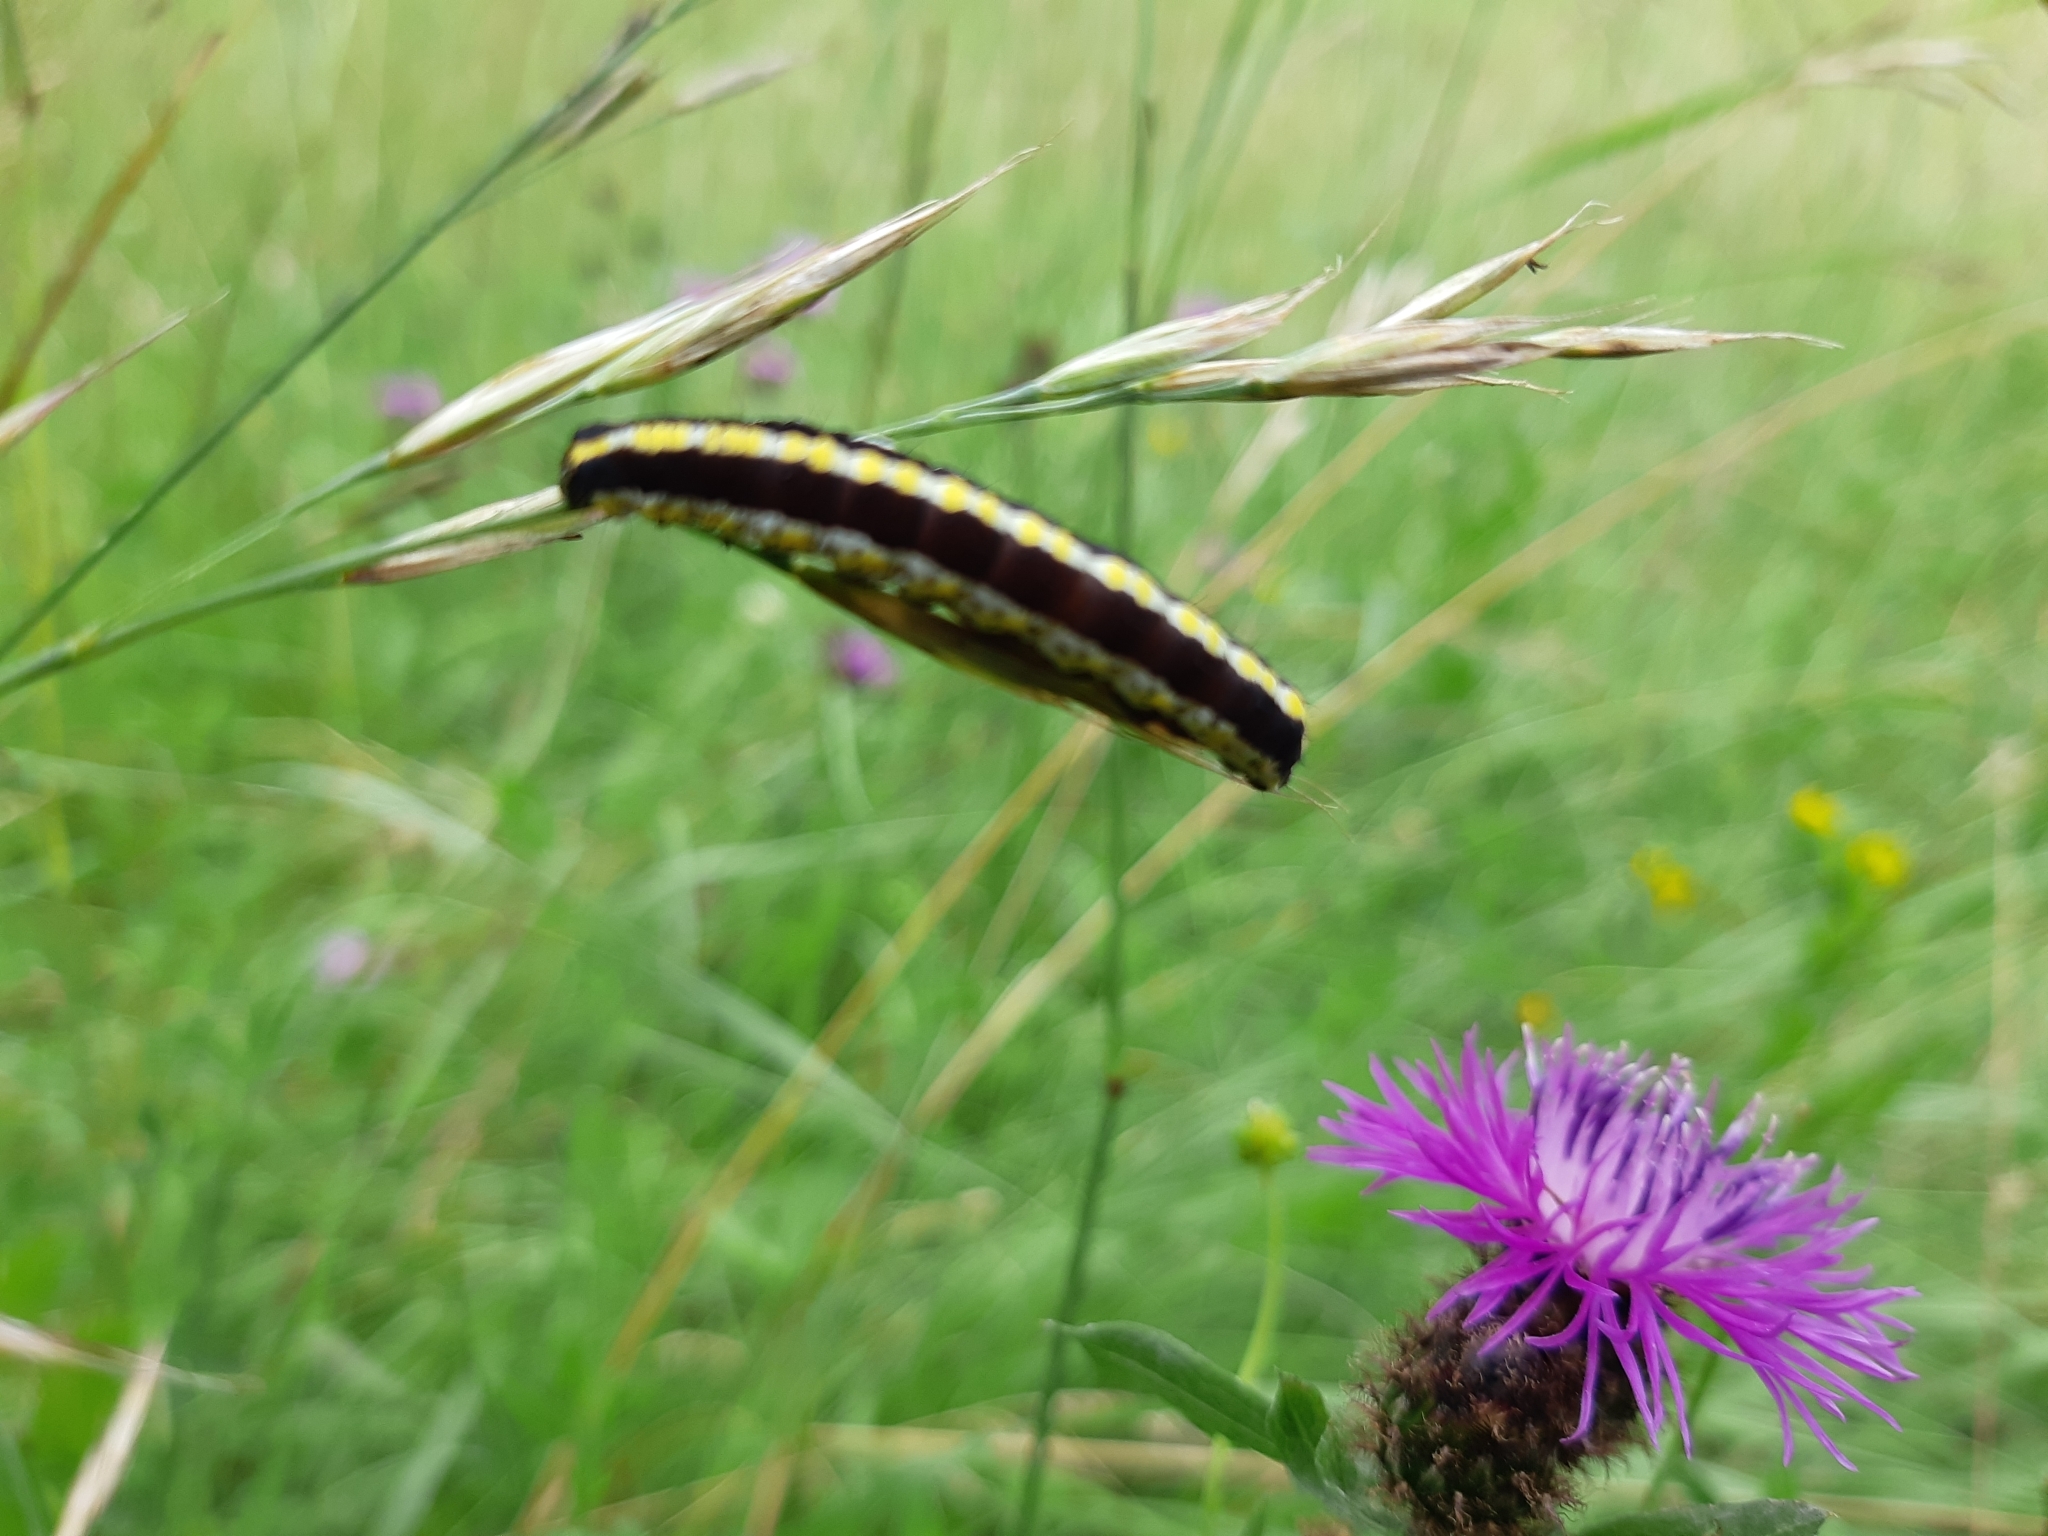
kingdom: Animalia
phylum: Arthropoda
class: Insecta
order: Lepidoptera
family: Noctuidae
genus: Cucullia
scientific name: Cucullia lucifuga
